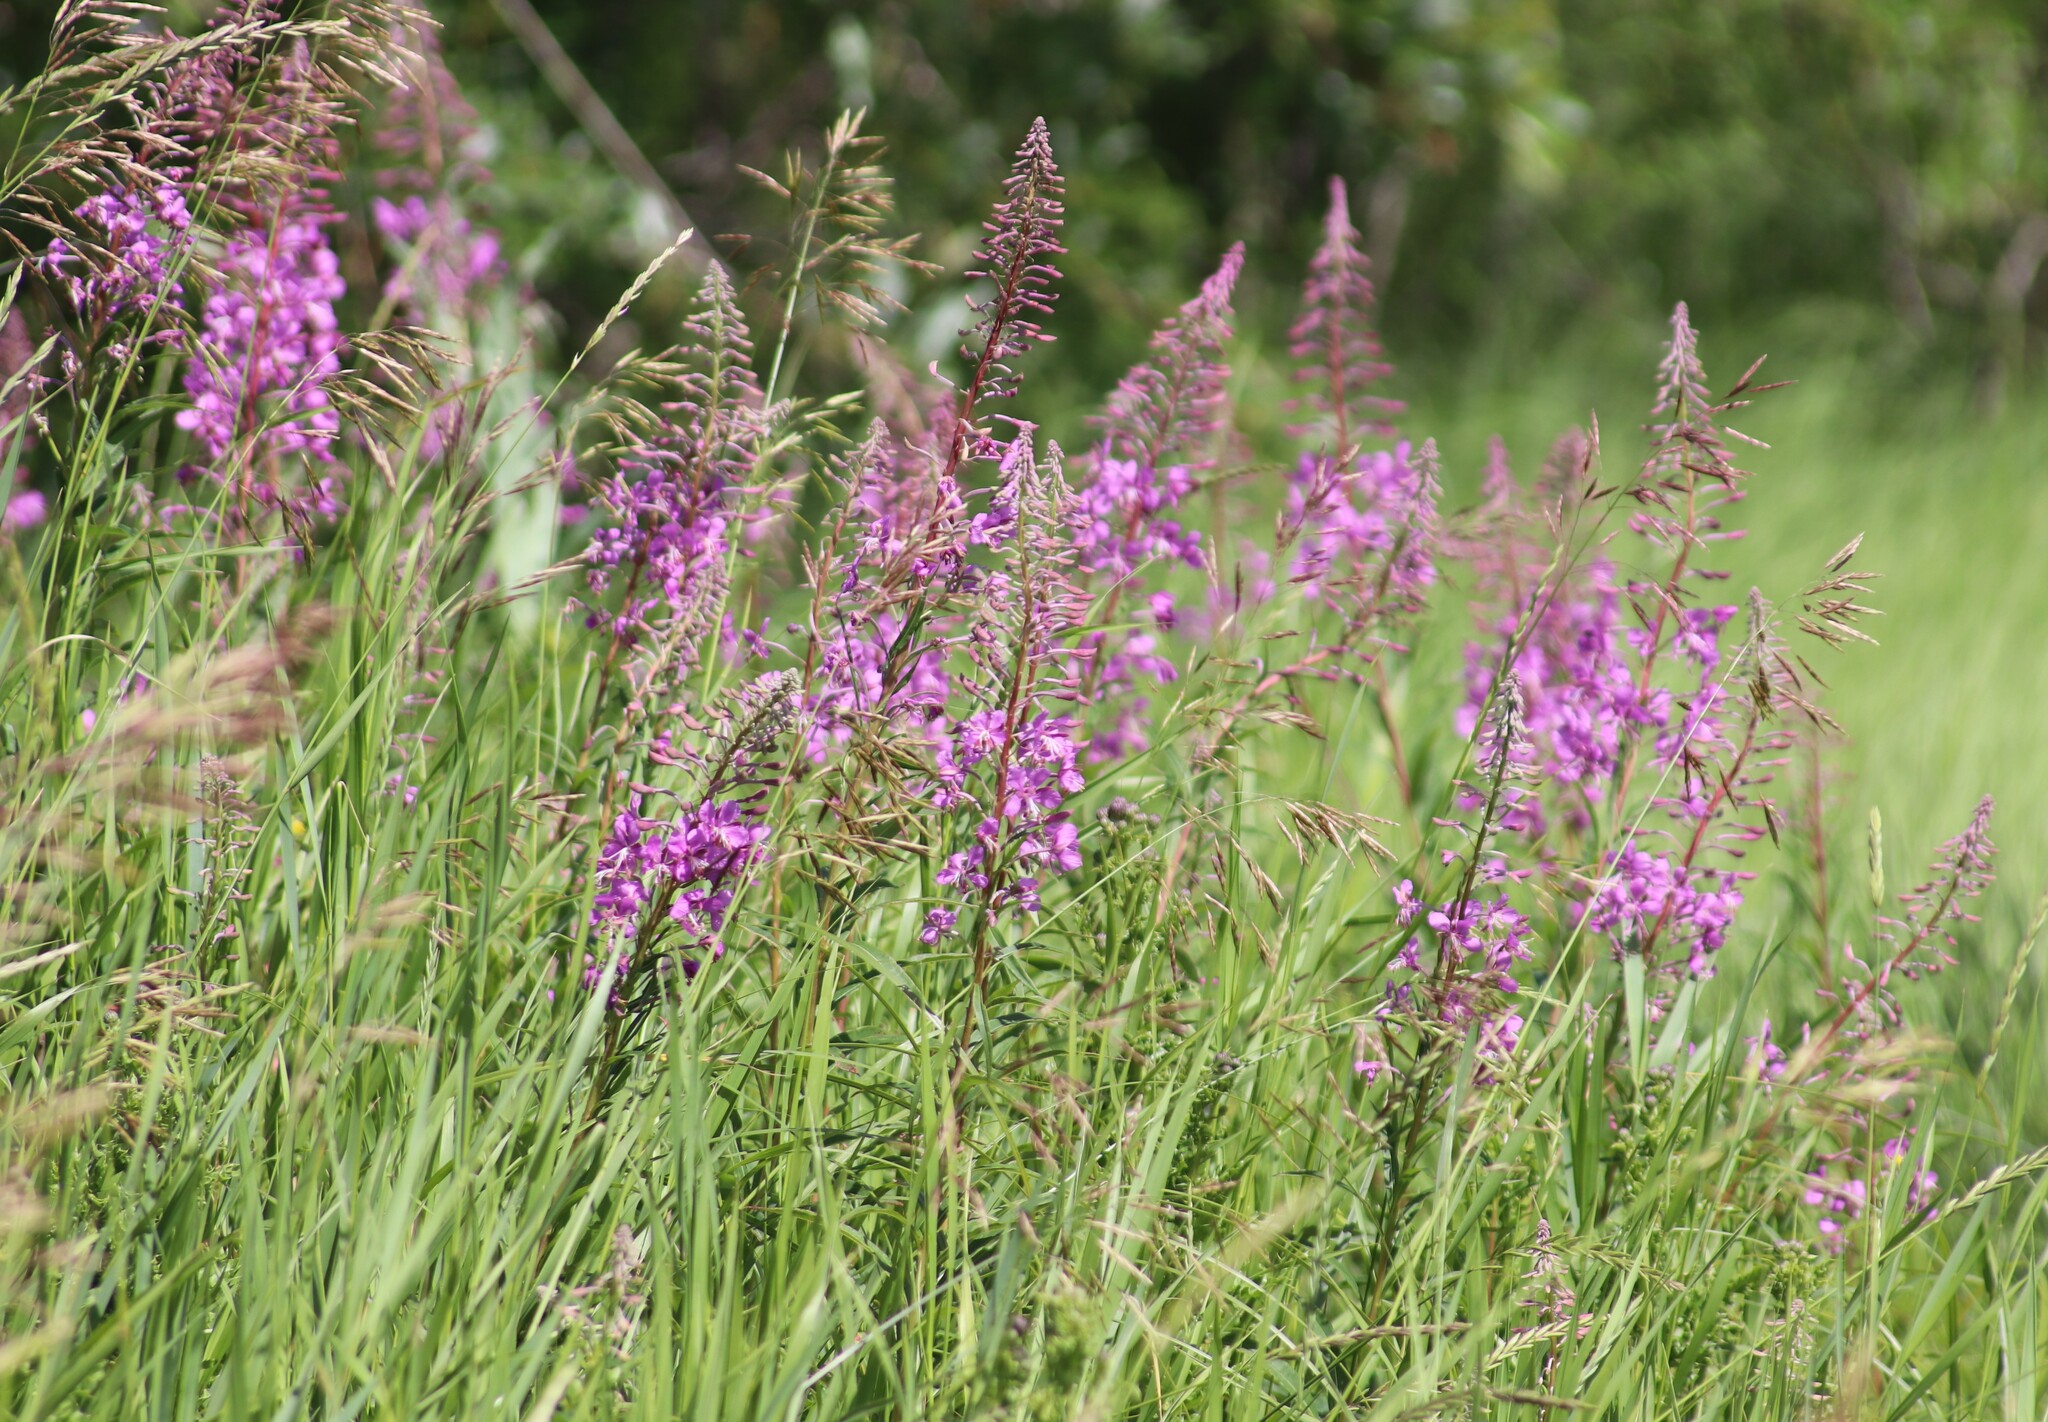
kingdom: Plantae
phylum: Tracheophyta
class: Magnoliopsida
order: Myrtales
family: Onagraceae
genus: Chamaenerion
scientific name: Chamaenerion angustifolium
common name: Fireweed
